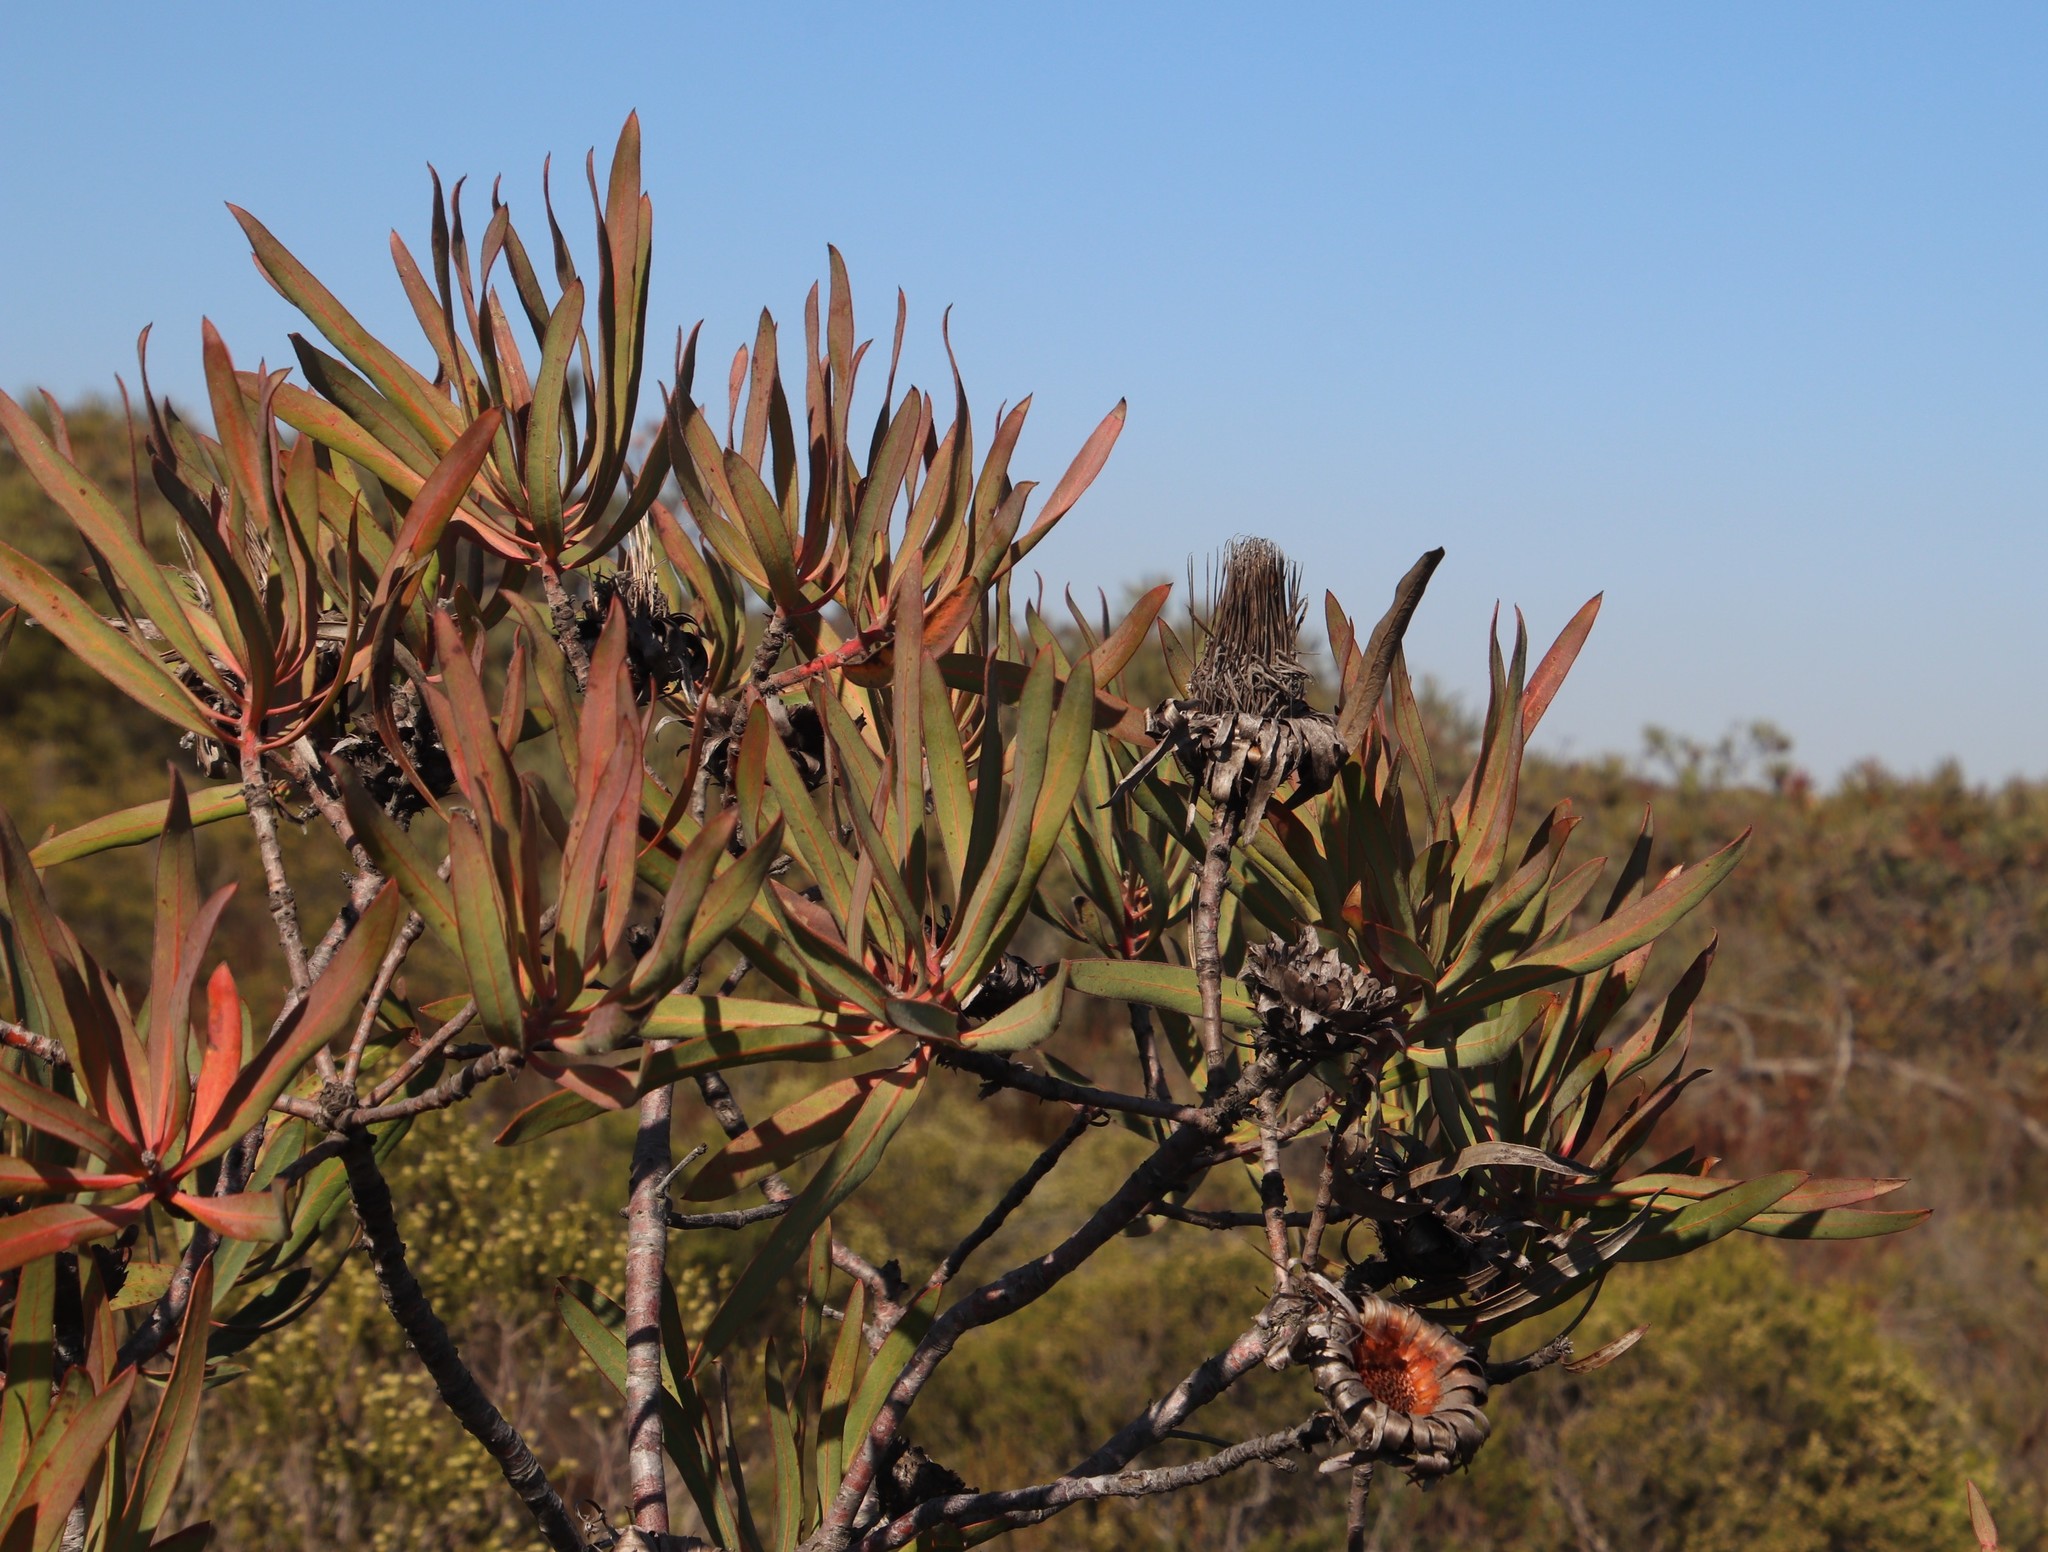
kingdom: Plantae
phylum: Tracheophyta
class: Magnoliopsida
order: Proteales
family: Proteaceae
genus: Protea
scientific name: Protea burchellii
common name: Burchell's sugarbush
